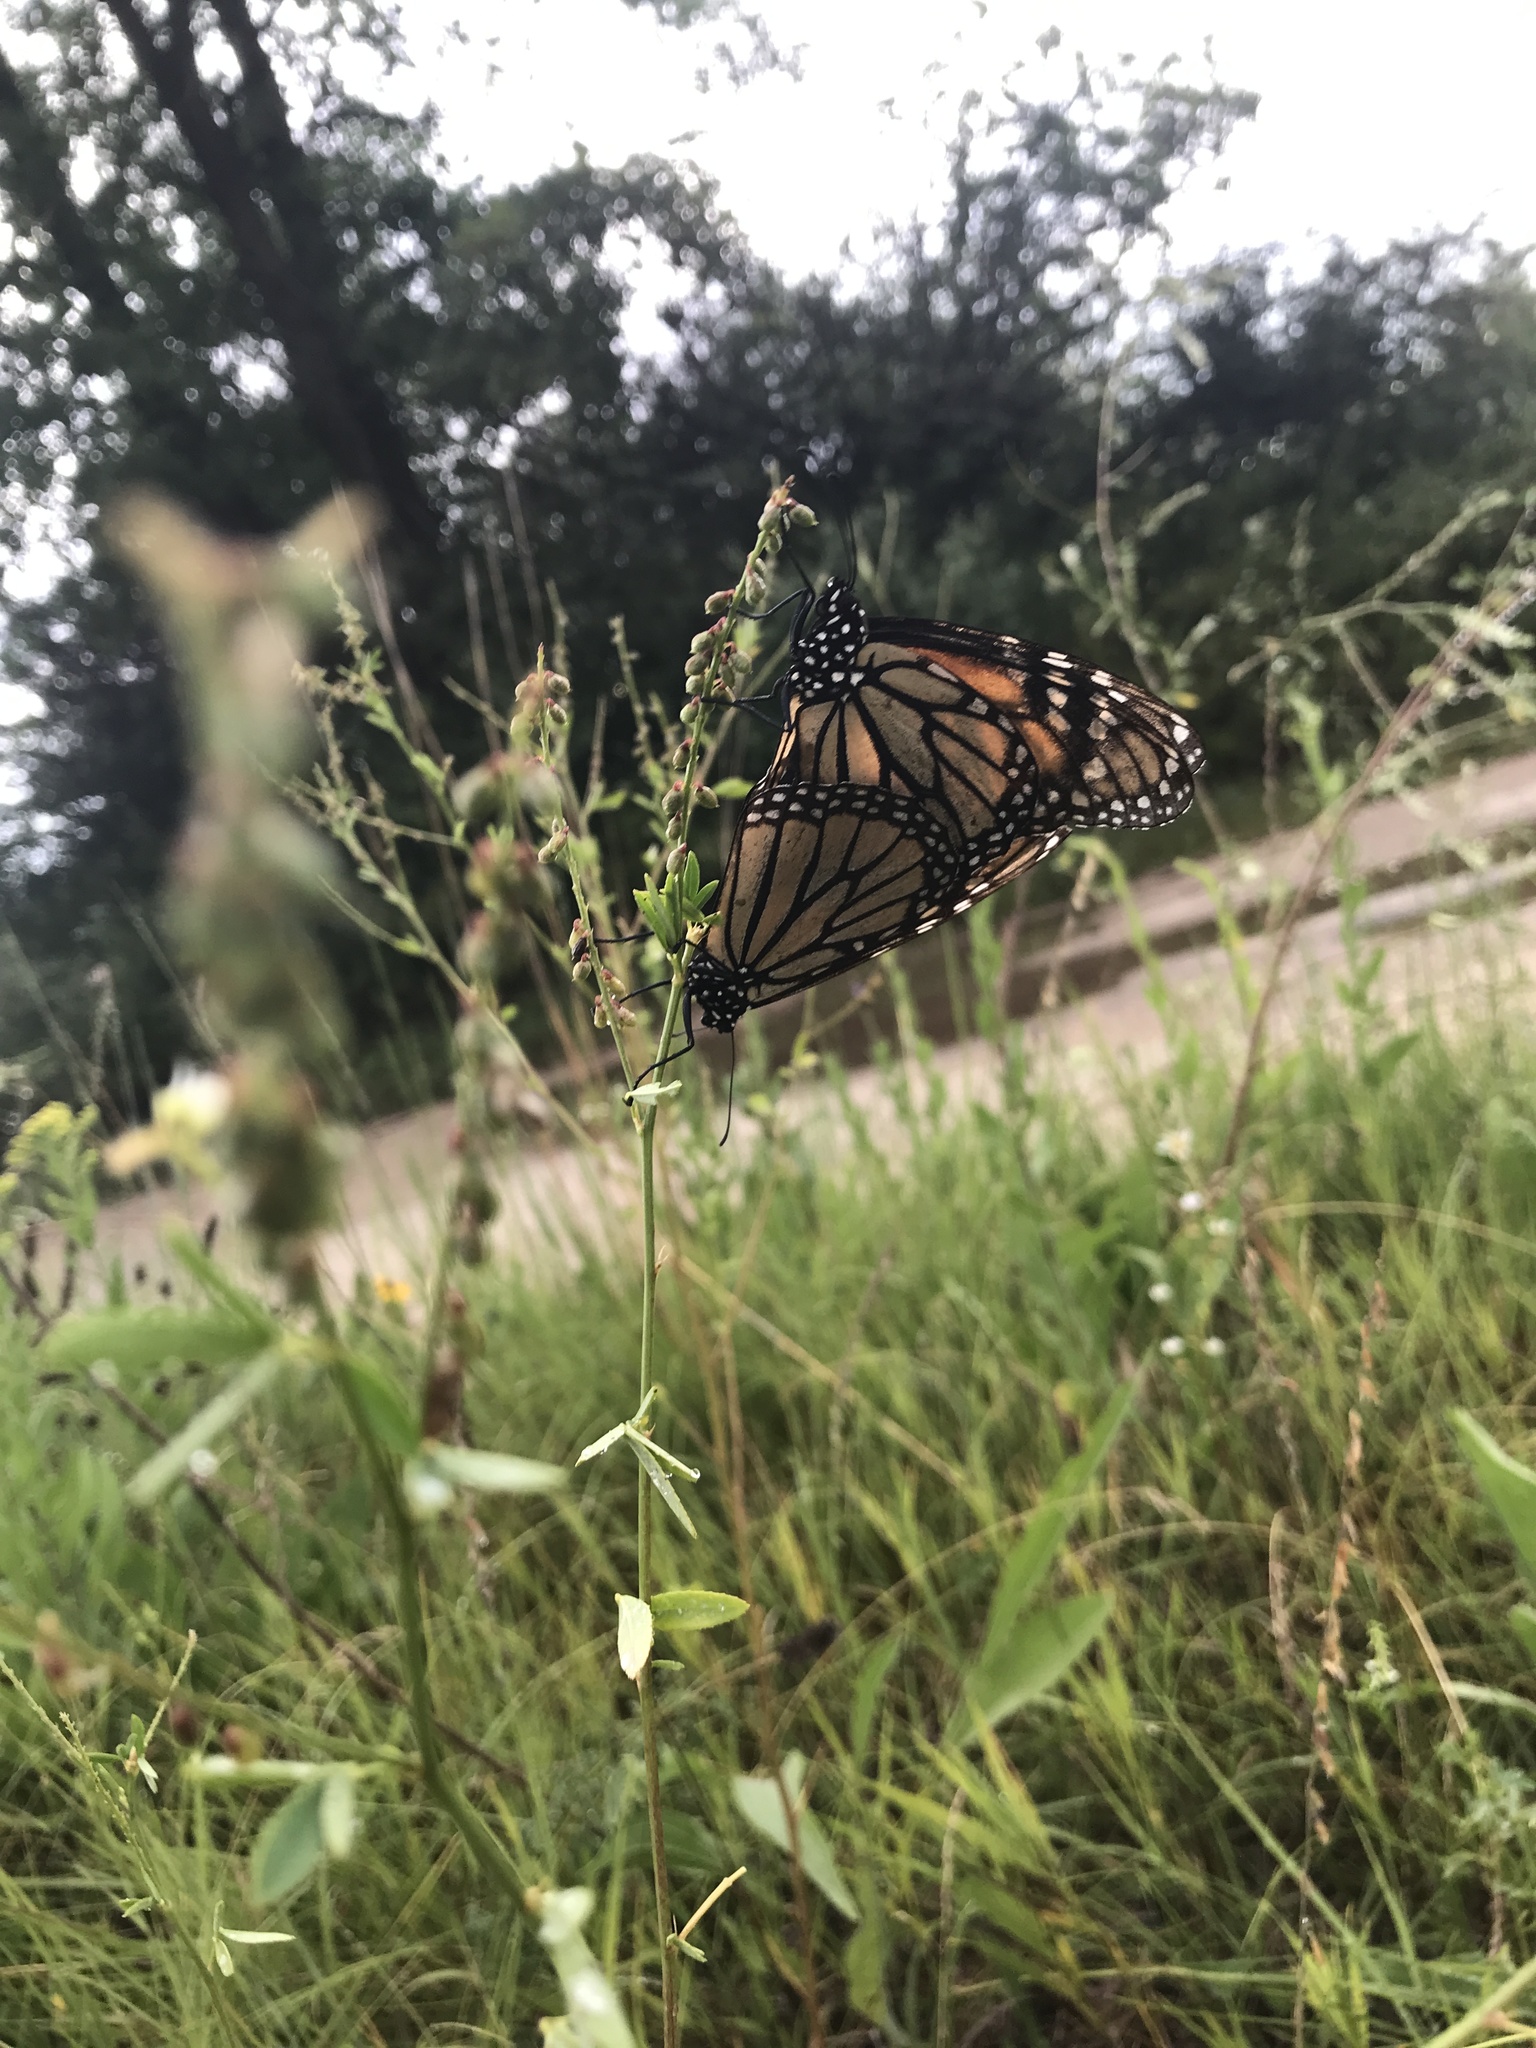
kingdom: Animalia
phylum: Arthropoda
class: Insecta
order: Lepidoptera
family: Nymphalidae
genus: Danaus
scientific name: Danaus plexippus
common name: Monarch
